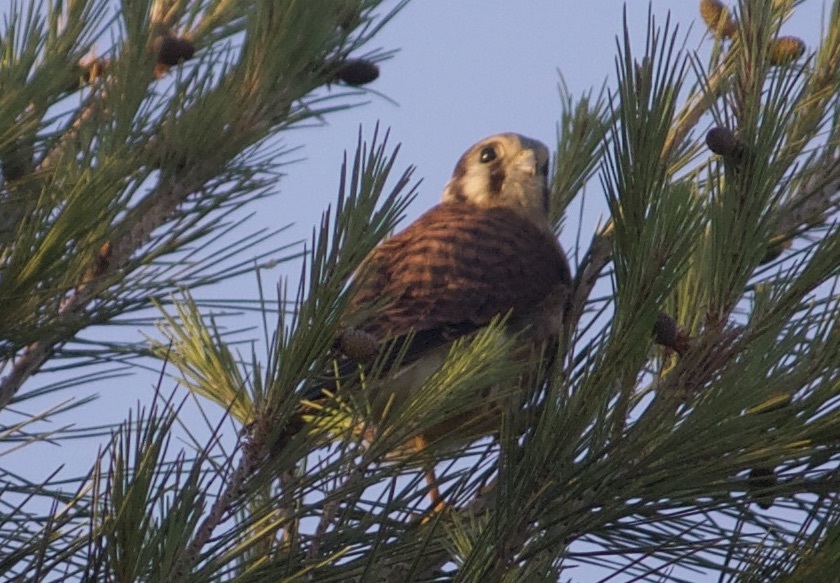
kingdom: Animalia
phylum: Chordata
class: Aves
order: Falconiformes
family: Falconidae
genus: Falco
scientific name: Falco sparverius
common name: American kestrel
